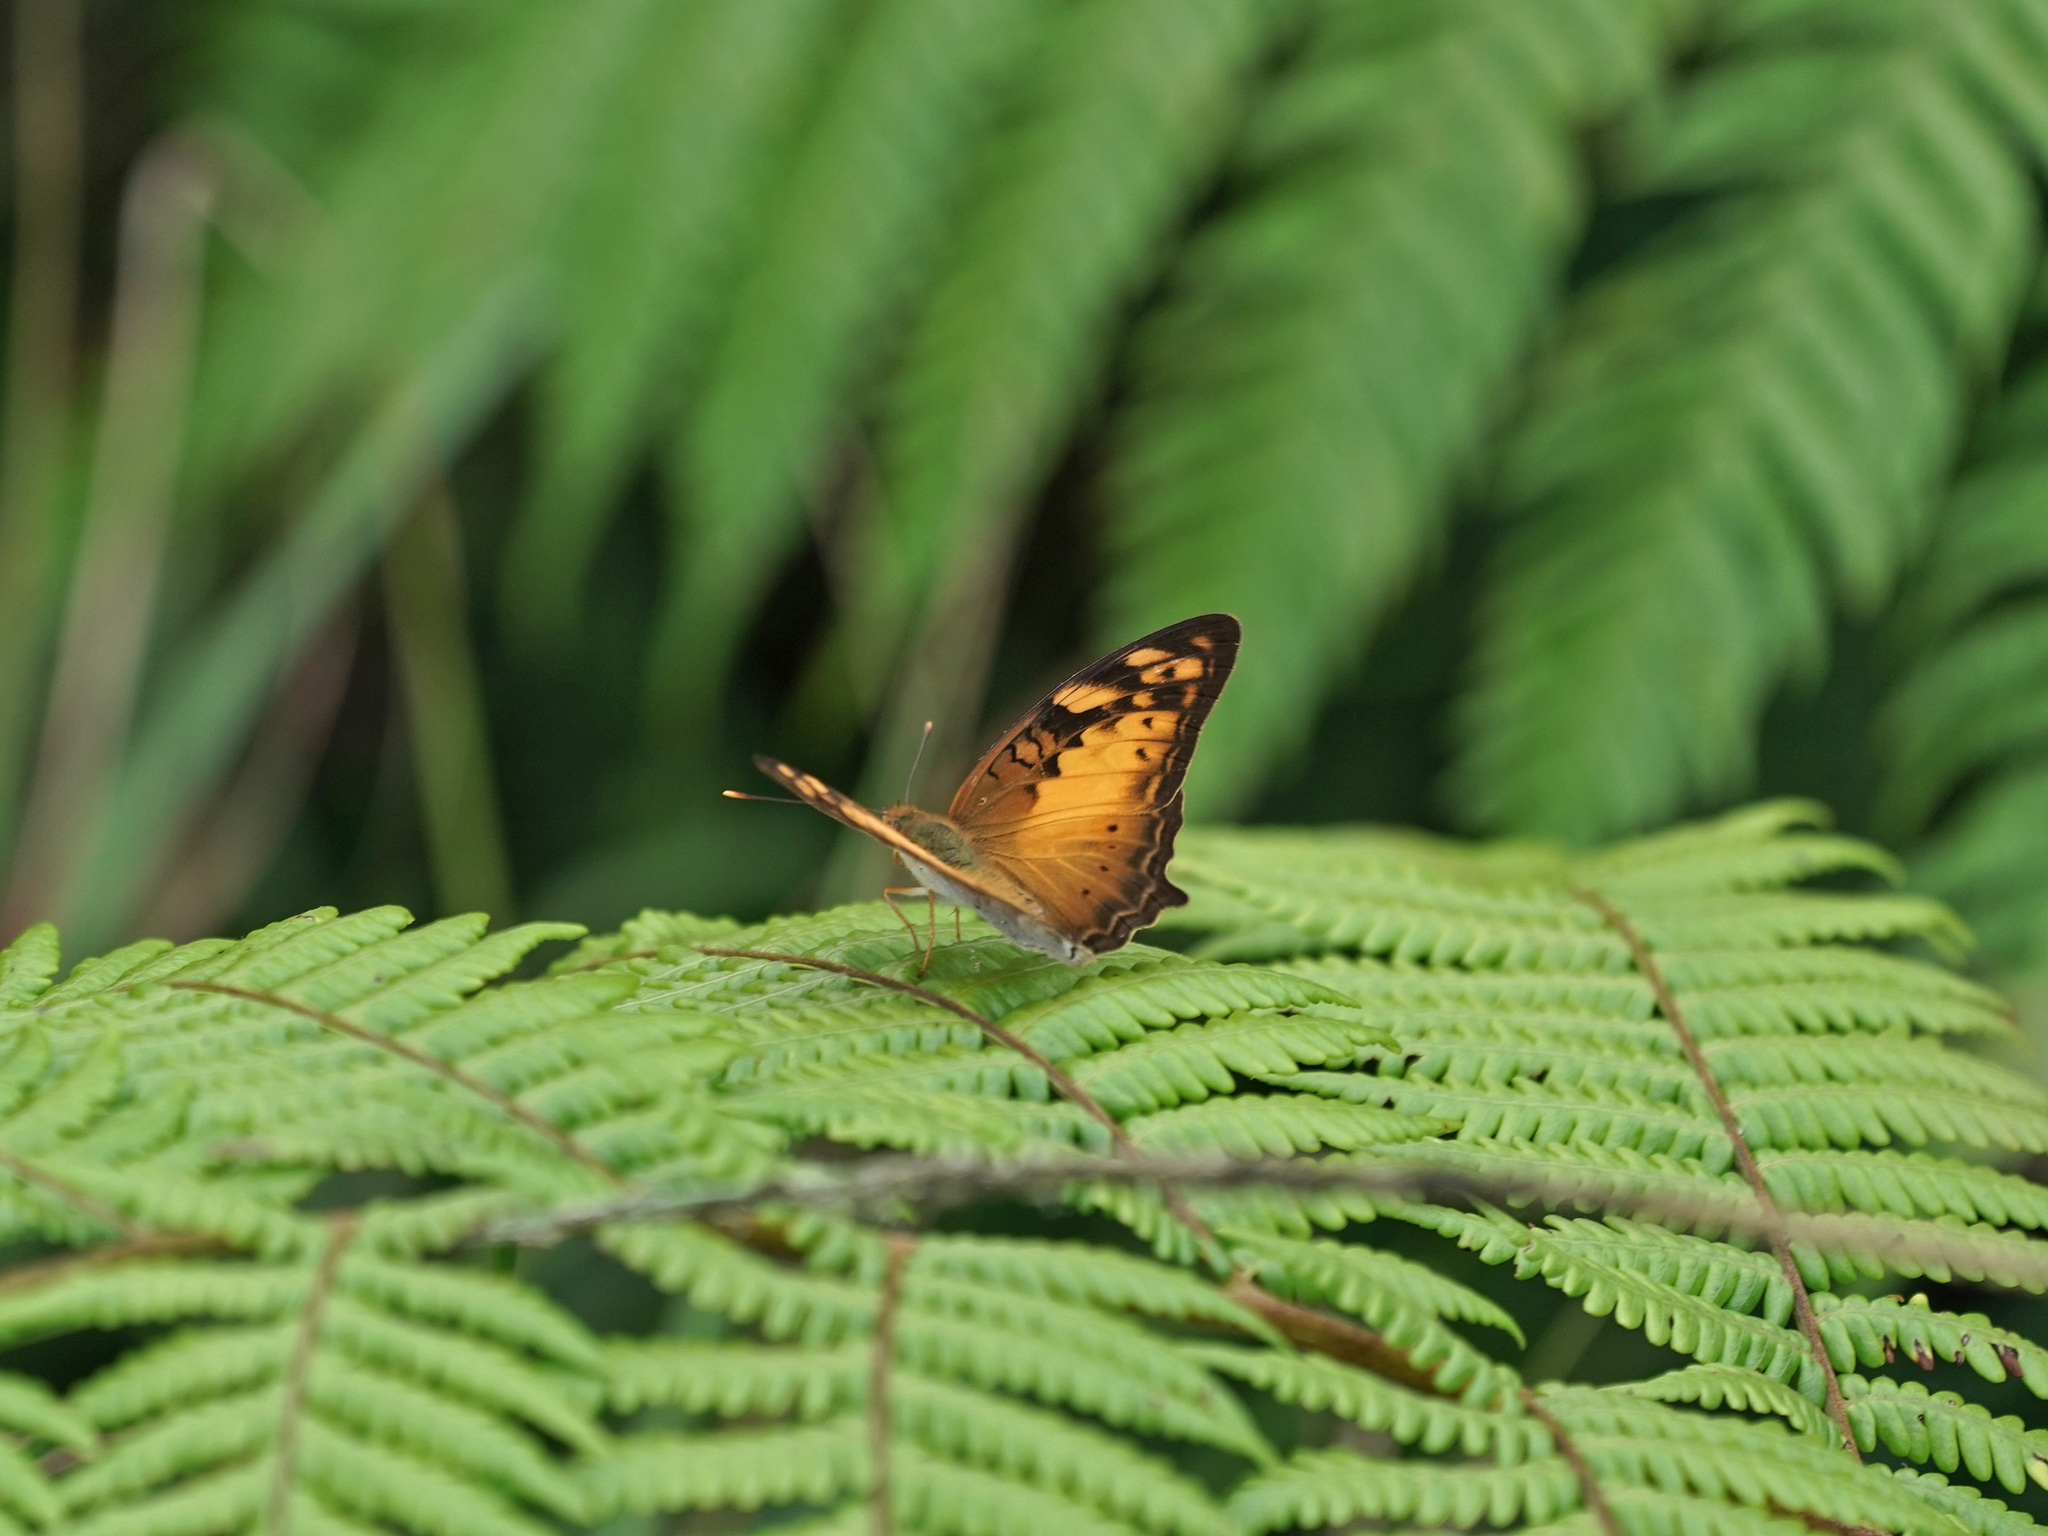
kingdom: Animalia
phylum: Arthropoda
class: Insecta
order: Lepidoptera
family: Nymphalidae
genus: Vagrans
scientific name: Vagrans sinha
